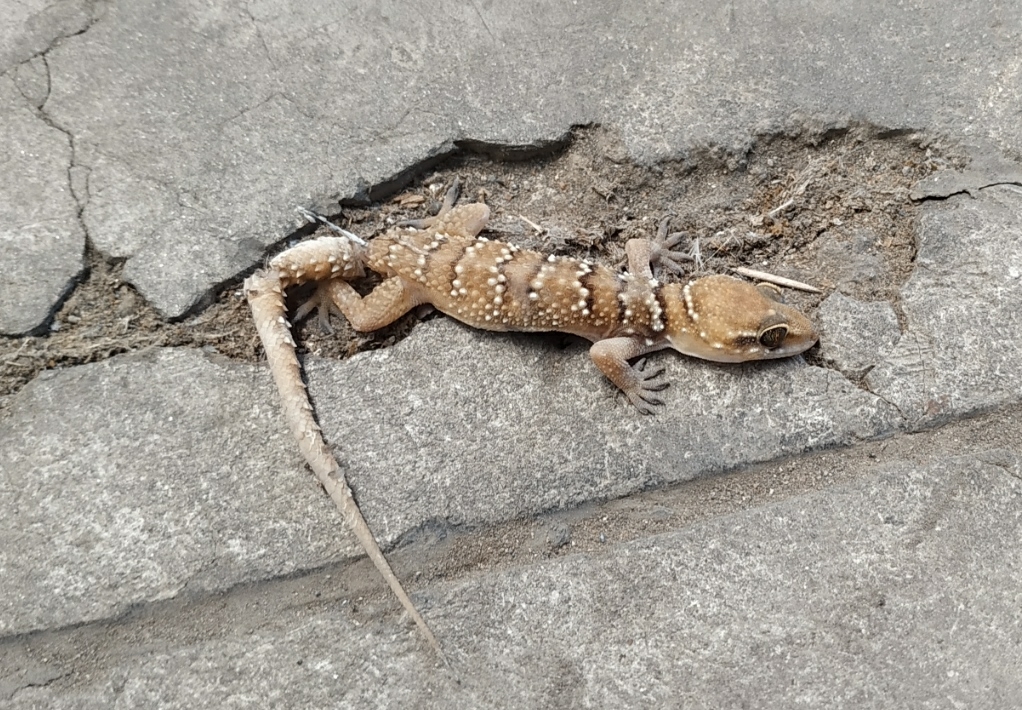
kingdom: Animalia
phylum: Chordata
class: Squamata
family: Gekkonidae
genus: Hemidactylus
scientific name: Hemidactylus whitakeri
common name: Whitaker’s termite hill gecko
